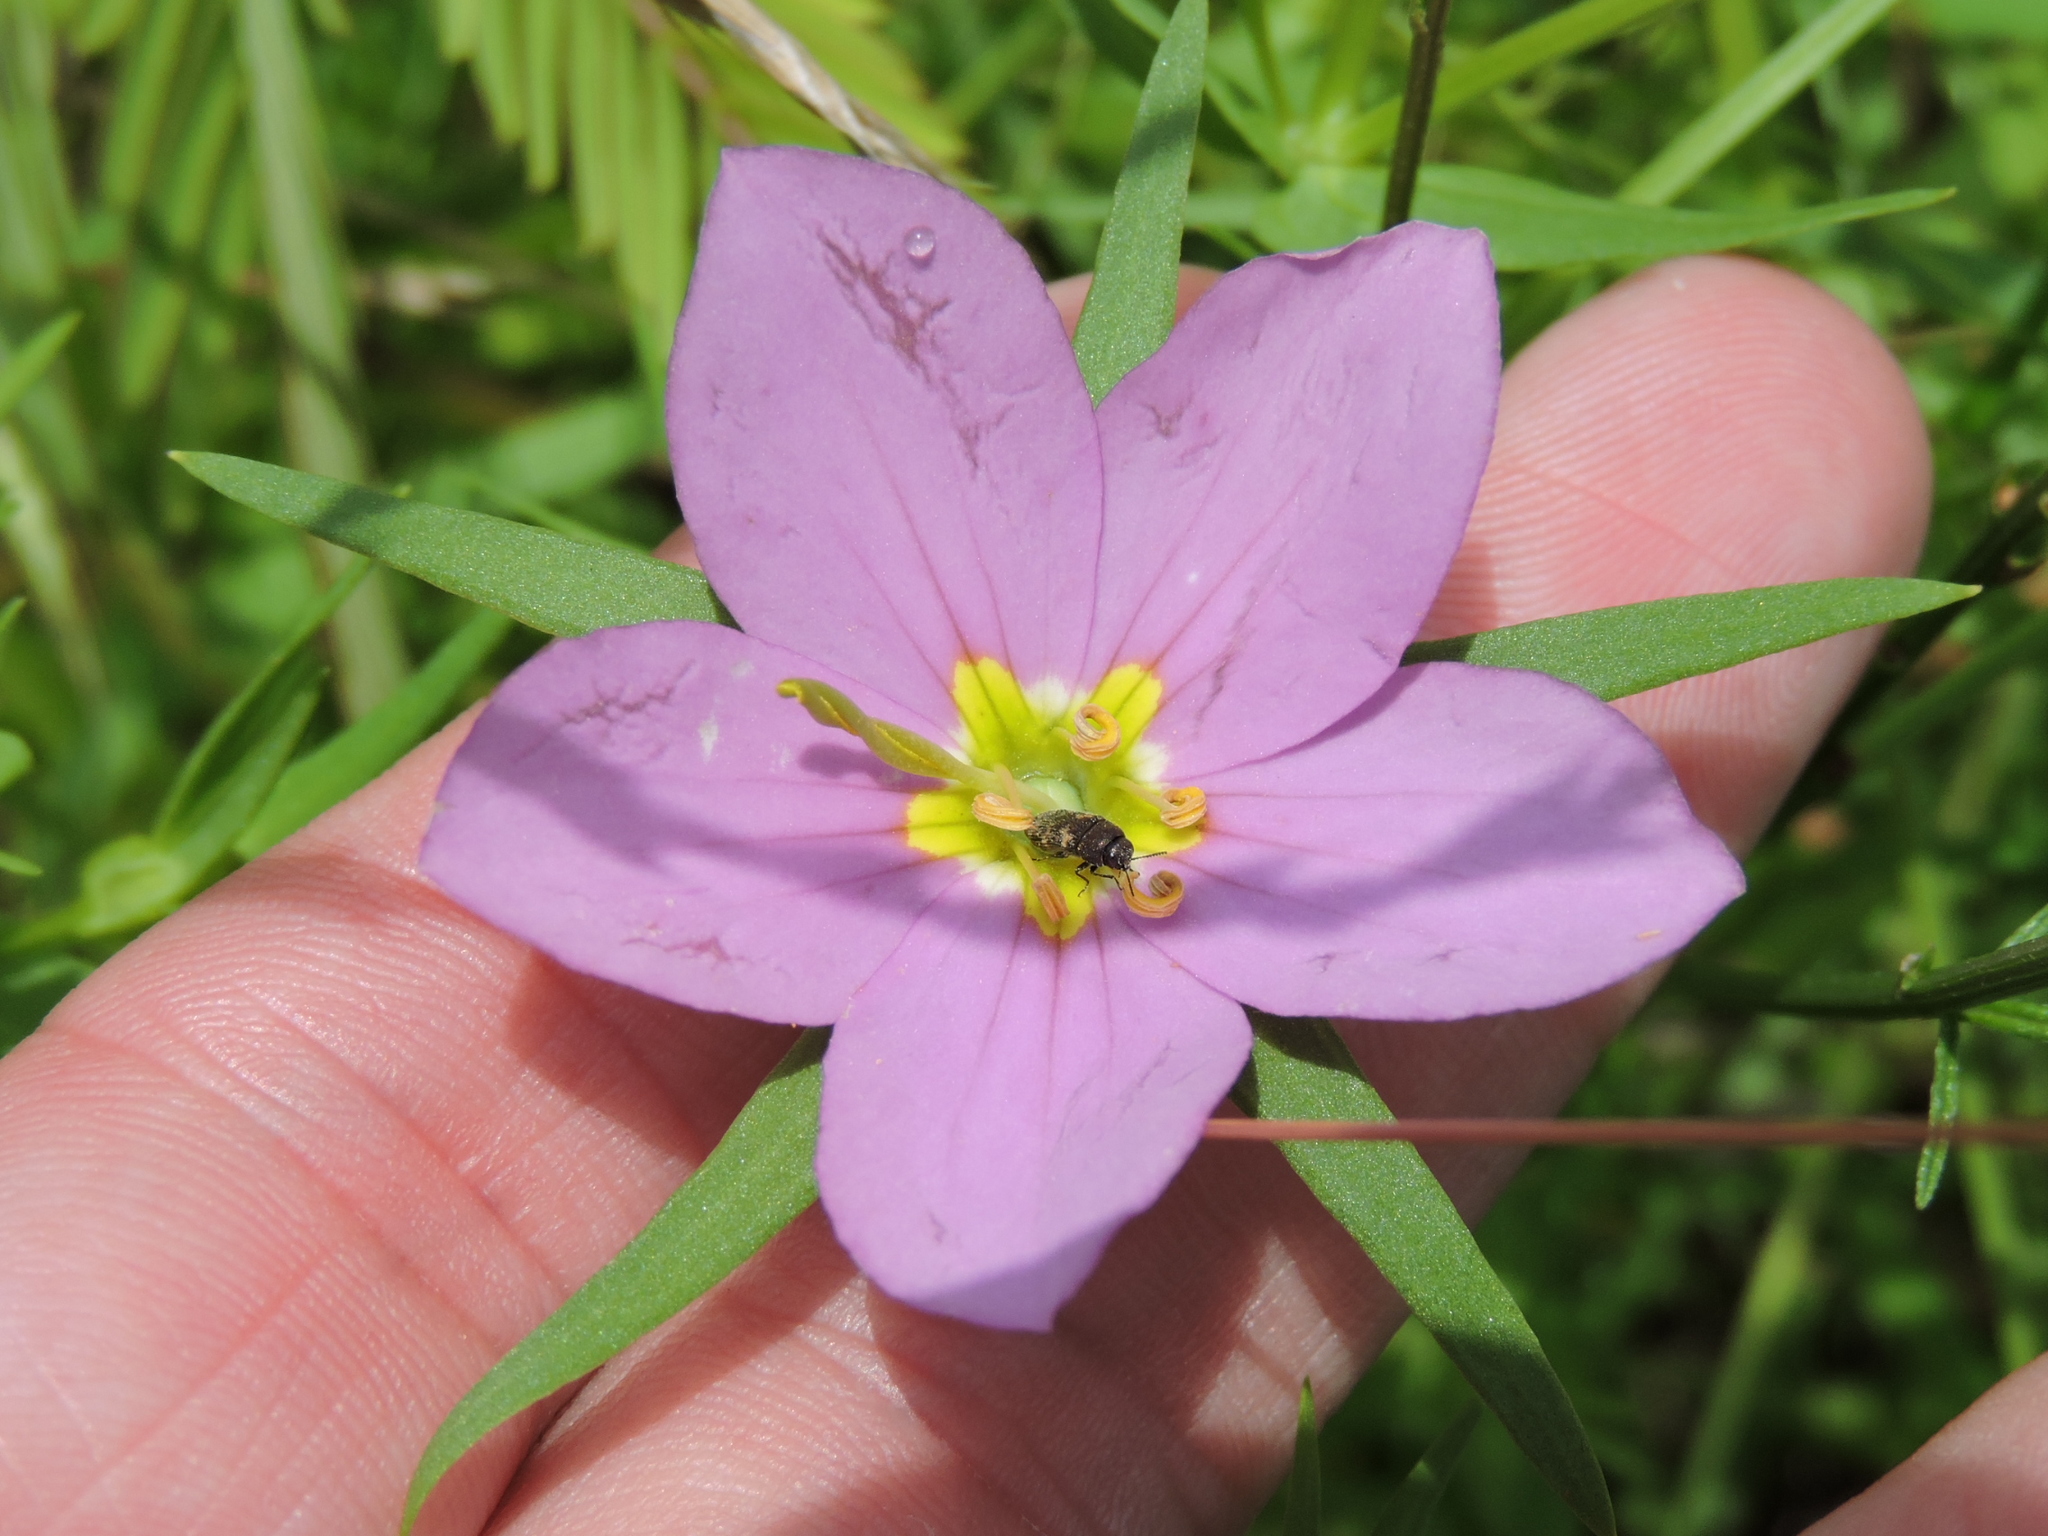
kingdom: Plantae
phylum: Tracheophyta
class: Magnoliopsida
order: Gentianales
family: Gentianaceae
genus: Sabatia
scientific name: Sabatia campestris
